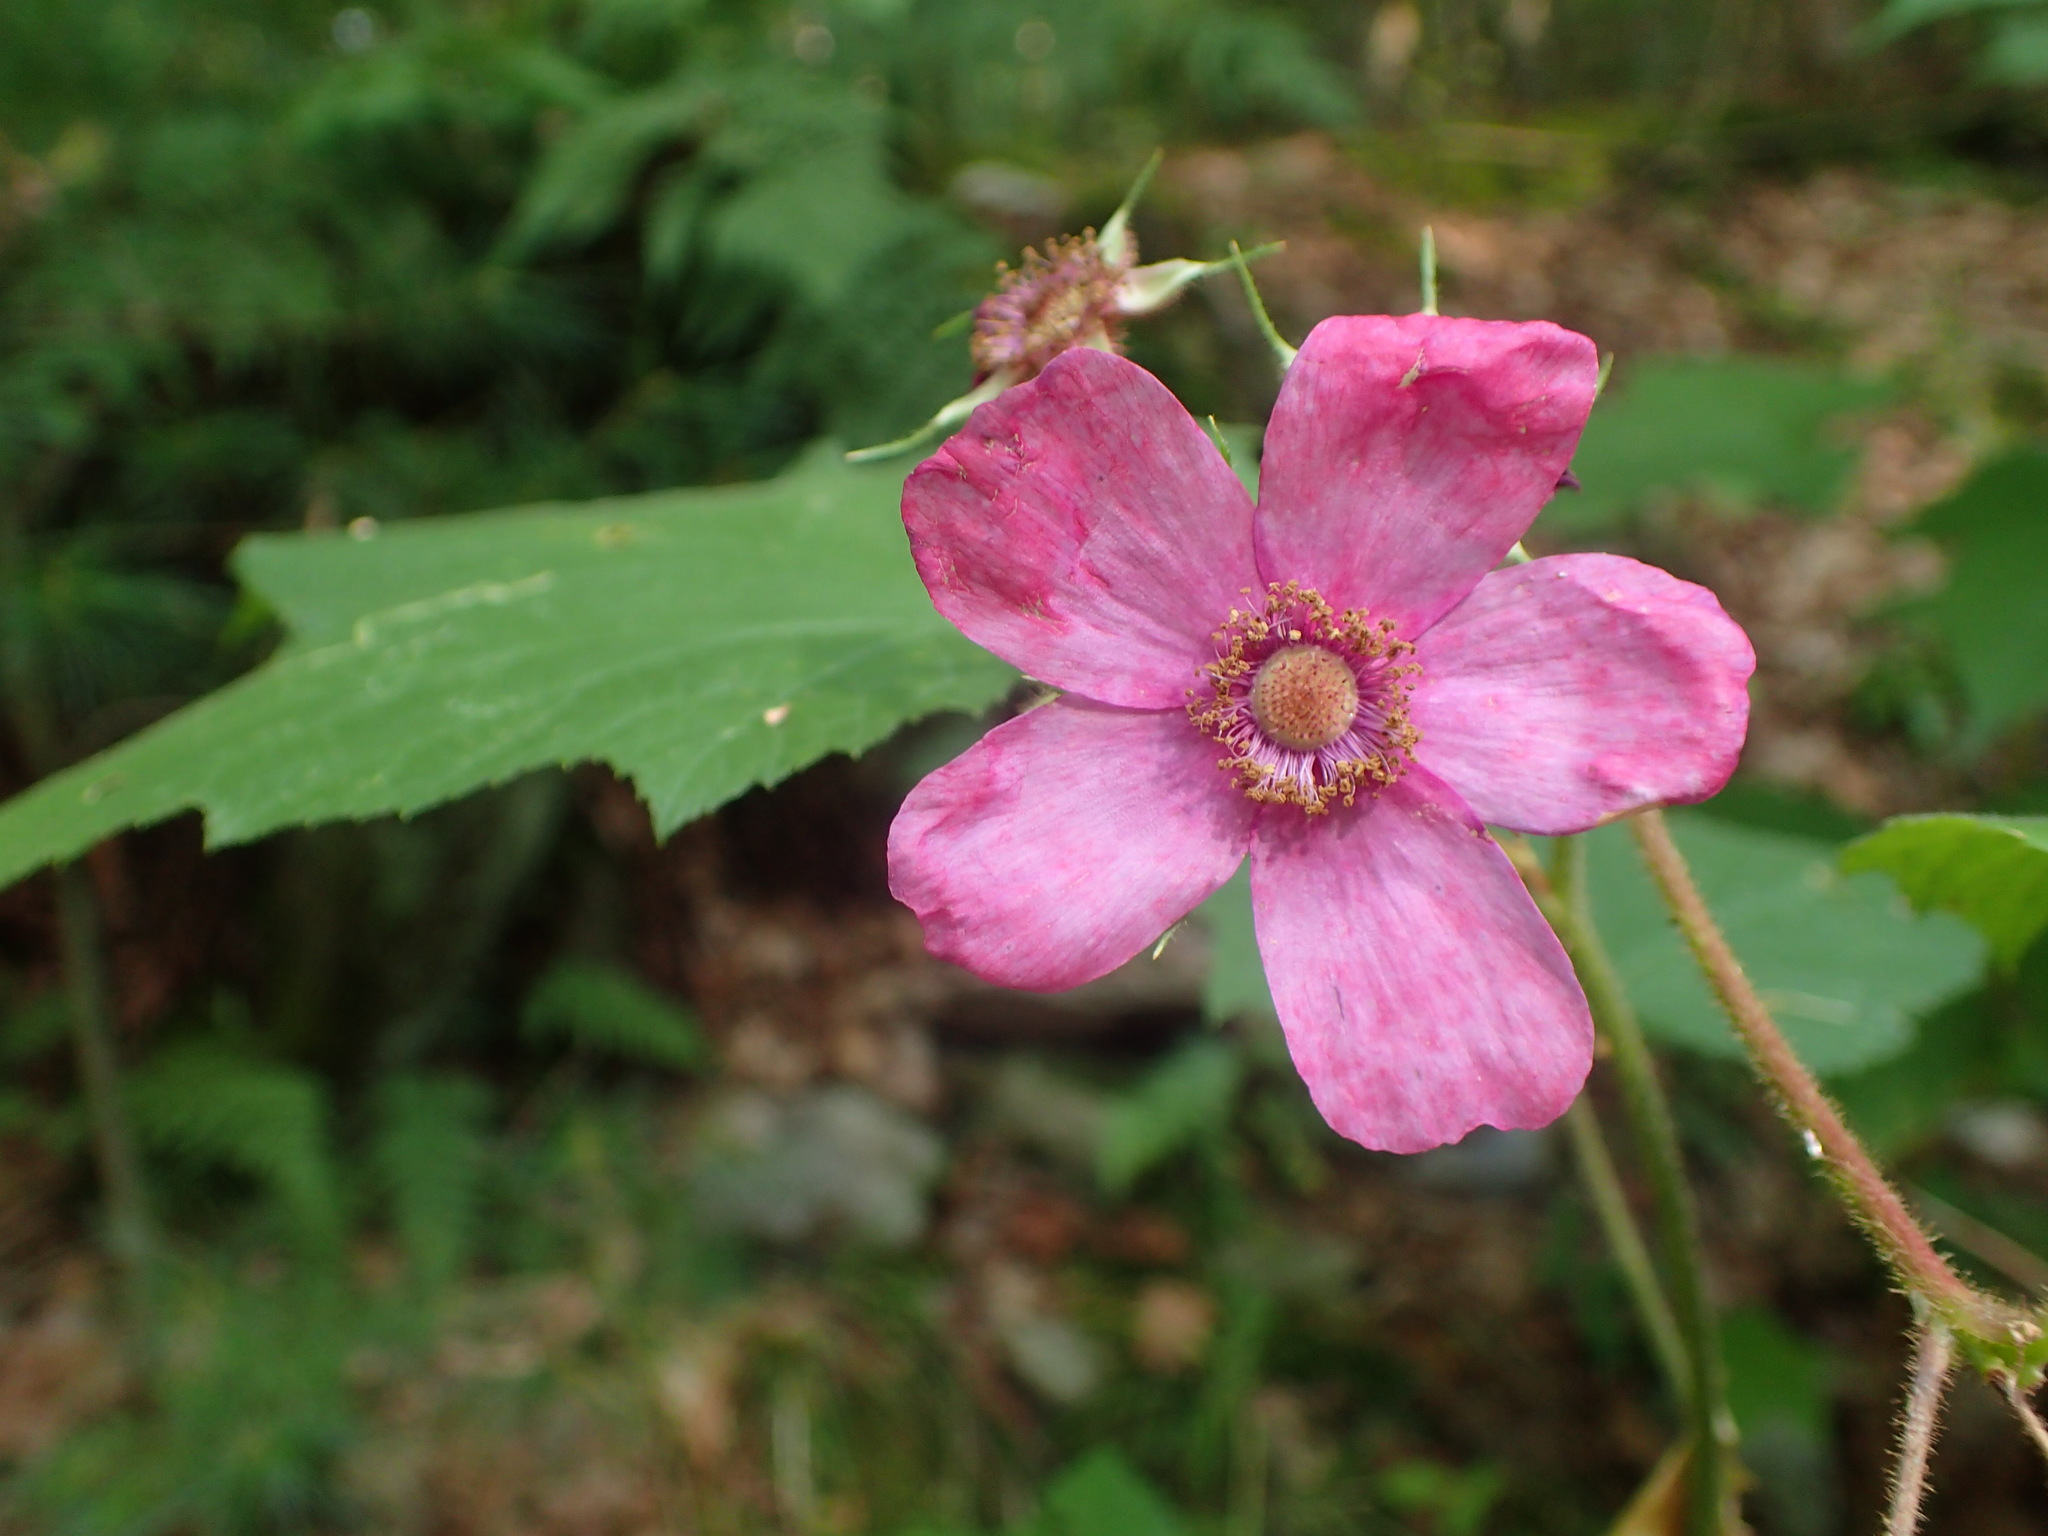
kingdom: Plantae
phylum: Tracheophyta
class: Magnoliopsida
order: Rosales
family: Rosaceae
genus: Rubus
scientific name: Rubus odoratus
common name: Purple-flowered raspberry
